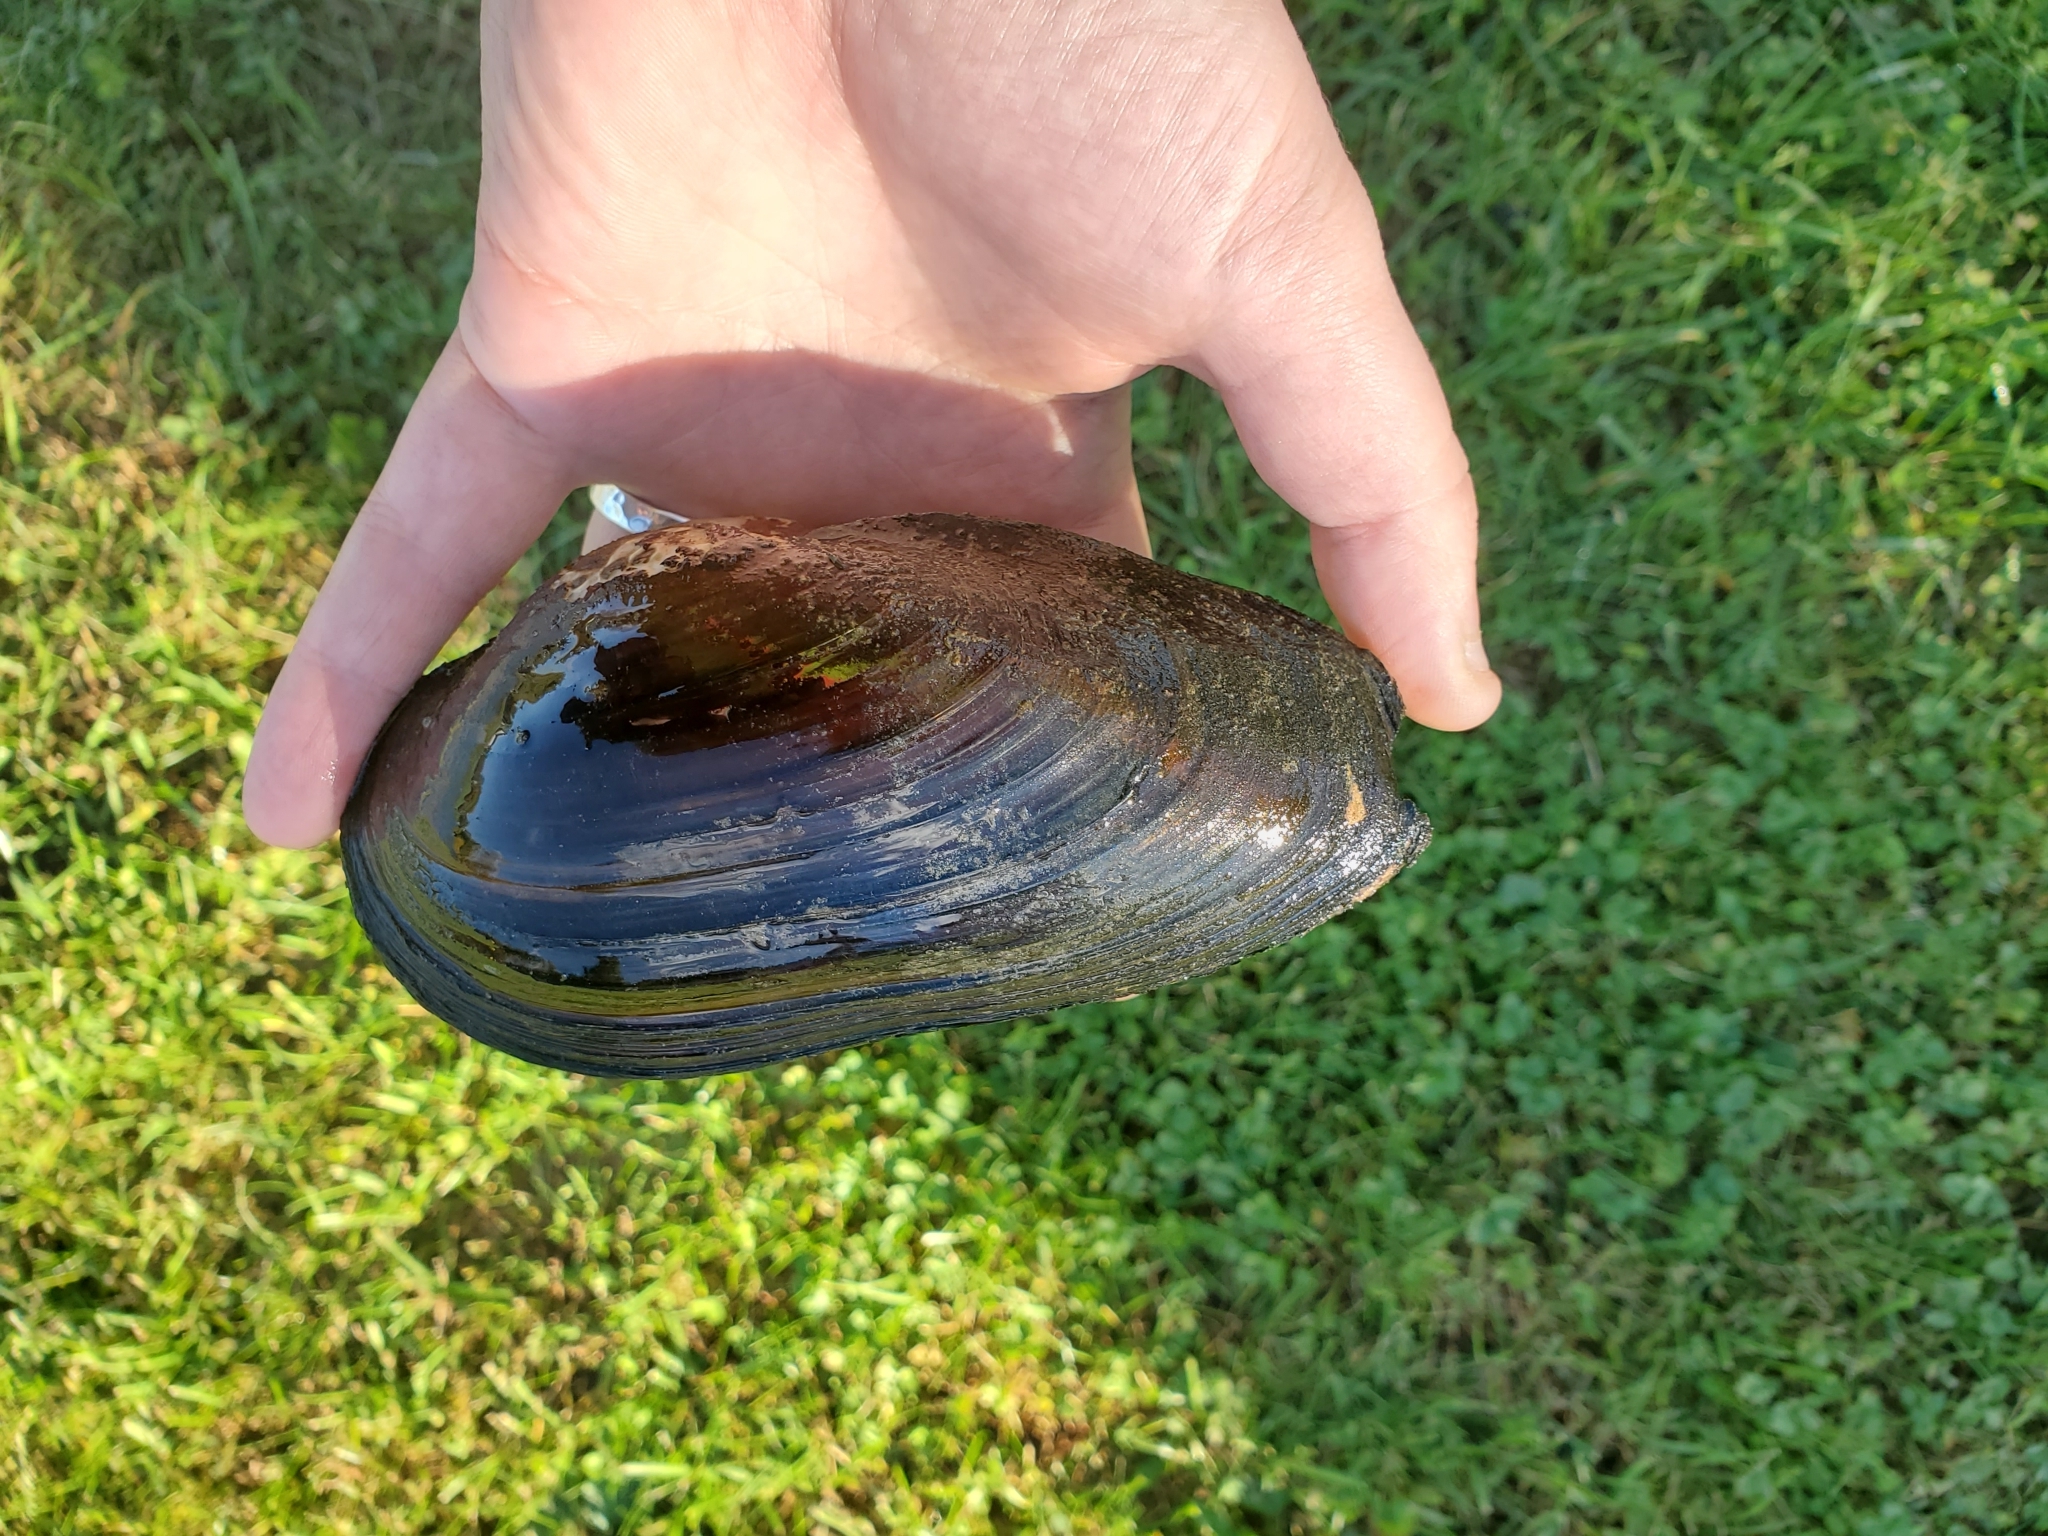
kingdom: Animalia
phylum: Mollusca
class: Bivalvia
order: Unionida
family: Unionidae
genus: Utterbackiana
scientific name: Utterbackiana implicata
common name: Alewife floater
